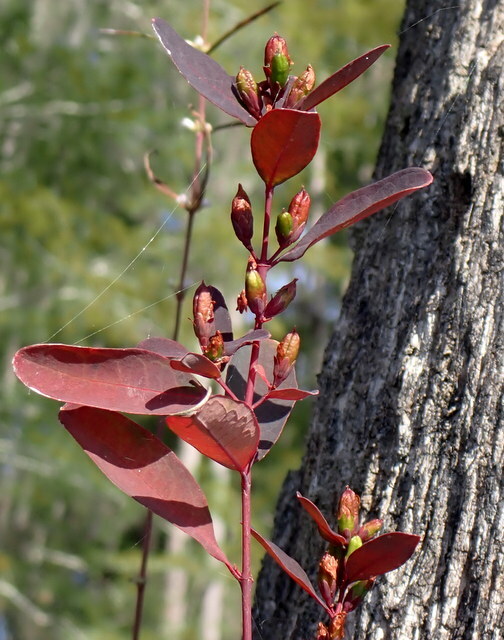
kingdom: Plantae
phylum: Tracheophyta
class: Magnoliopsida
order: Malpighiales
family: Hypericaceae
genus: Triadenum
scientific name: Triadenum walteri
